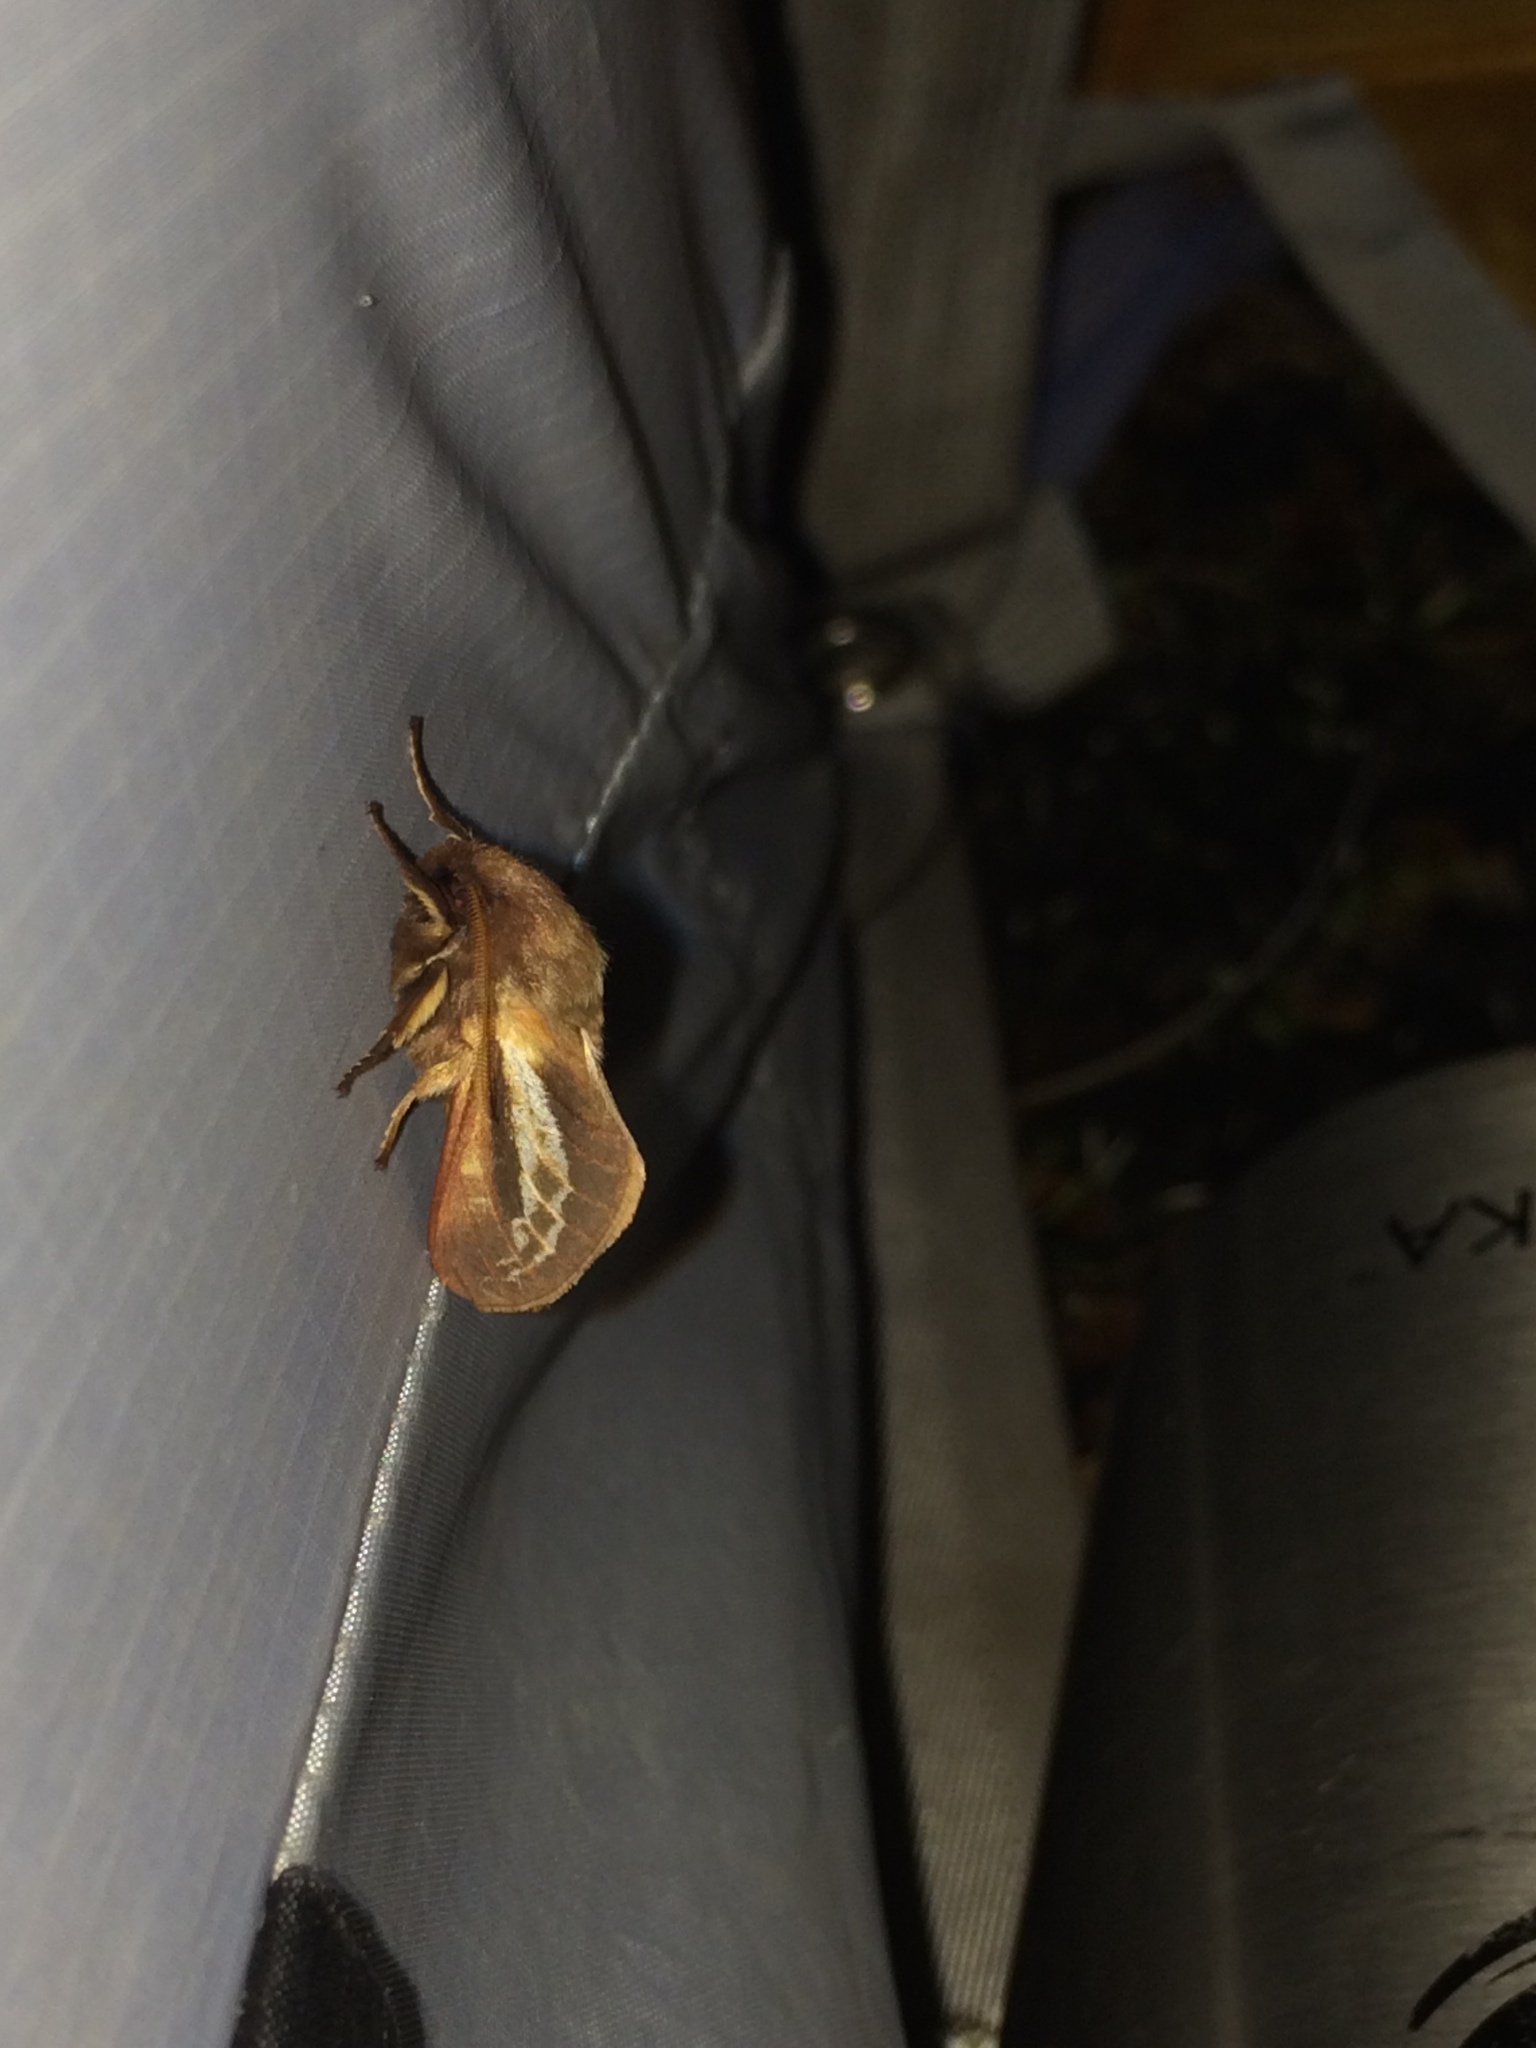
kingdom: Animalia
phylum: Arthropoda
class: Insecta
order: Lepidoptera
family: Hepialidae
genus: Heloxycanus
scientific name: Heloxycanus patricki
